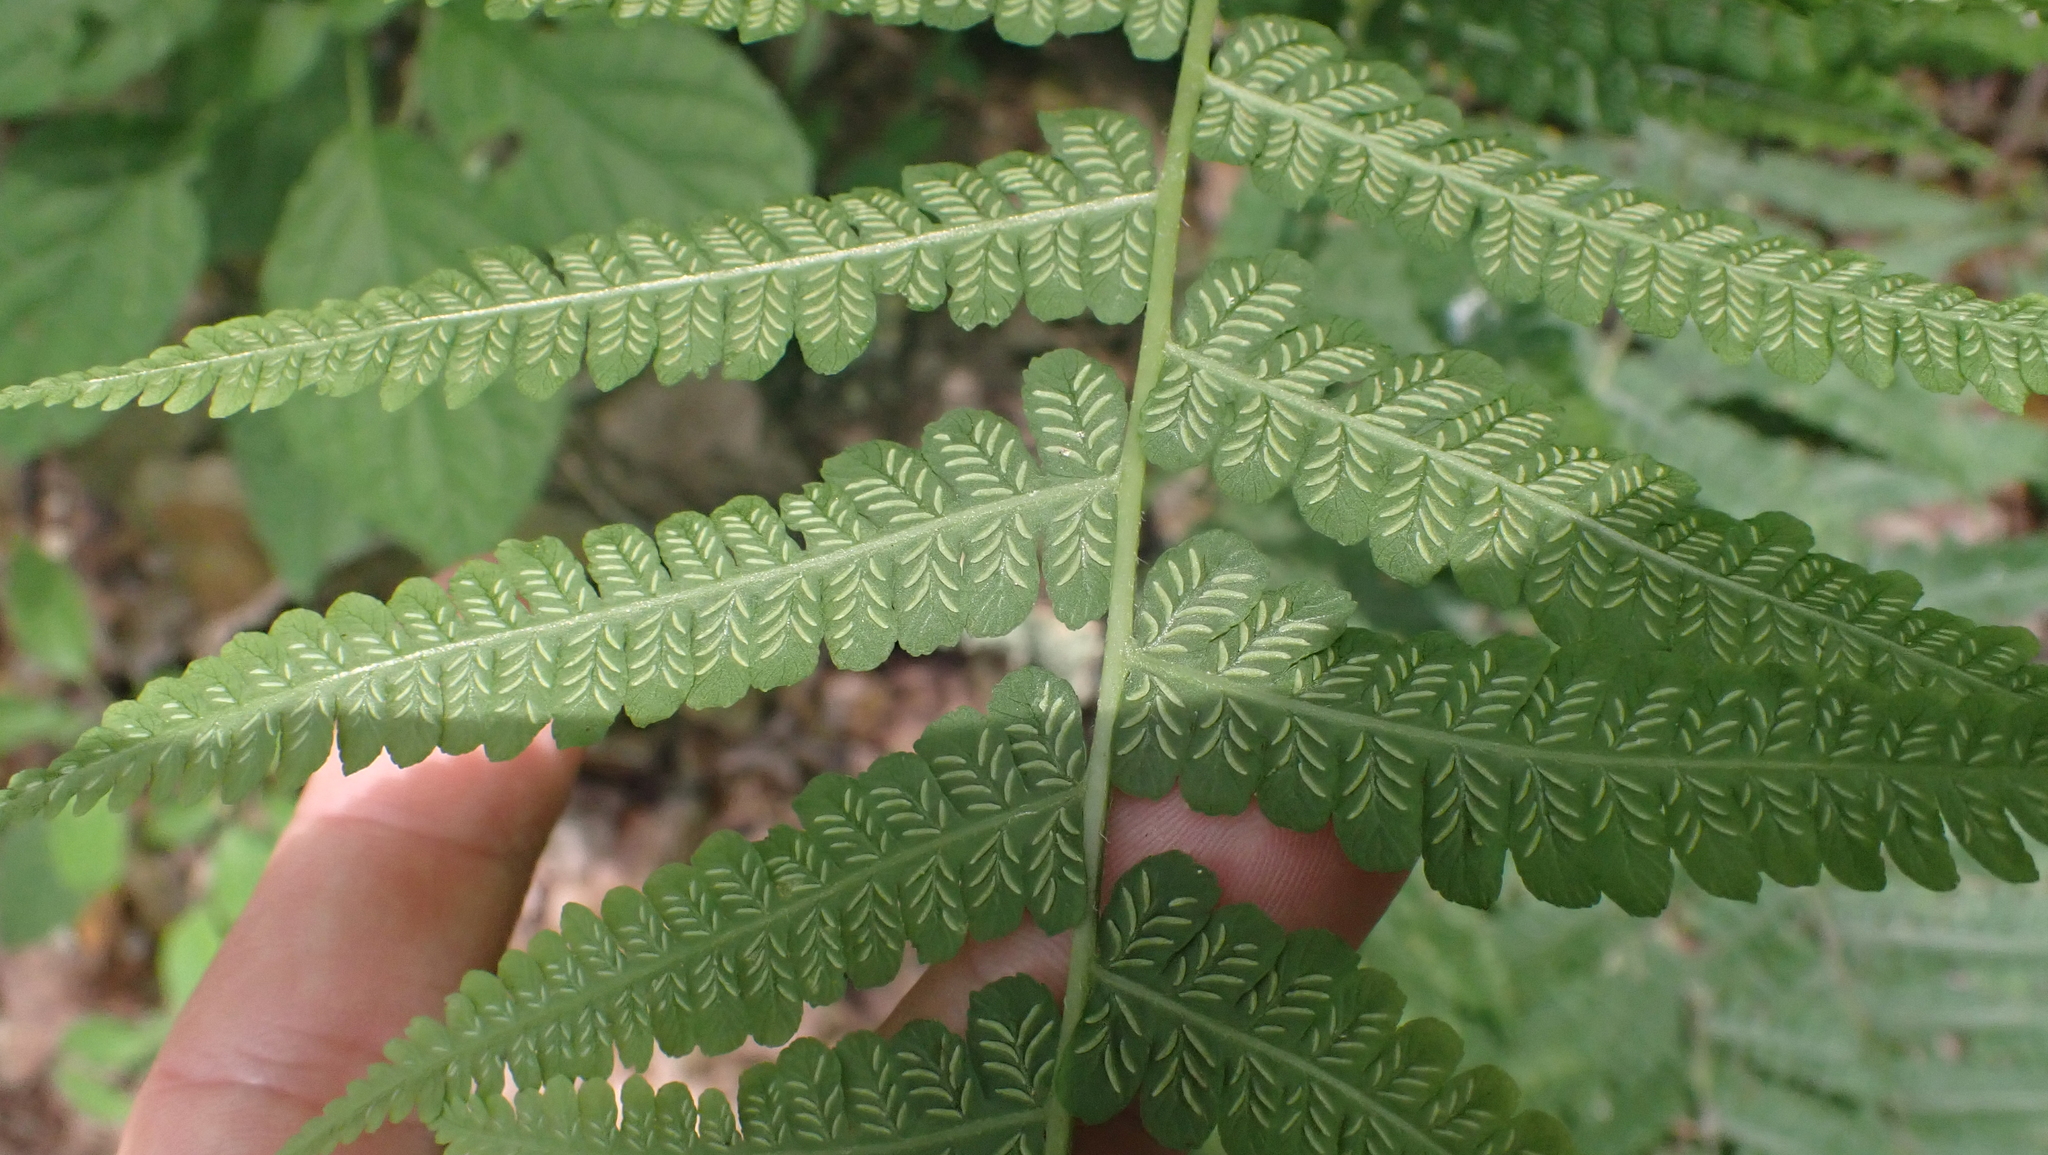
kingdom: Plantae
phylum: Tracheophyta
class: Polypodiopsida
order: Polypodiales
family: Athyriaceae
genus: Deparia
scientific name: Deparia acrostichoides
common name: Silver false spleenwort
